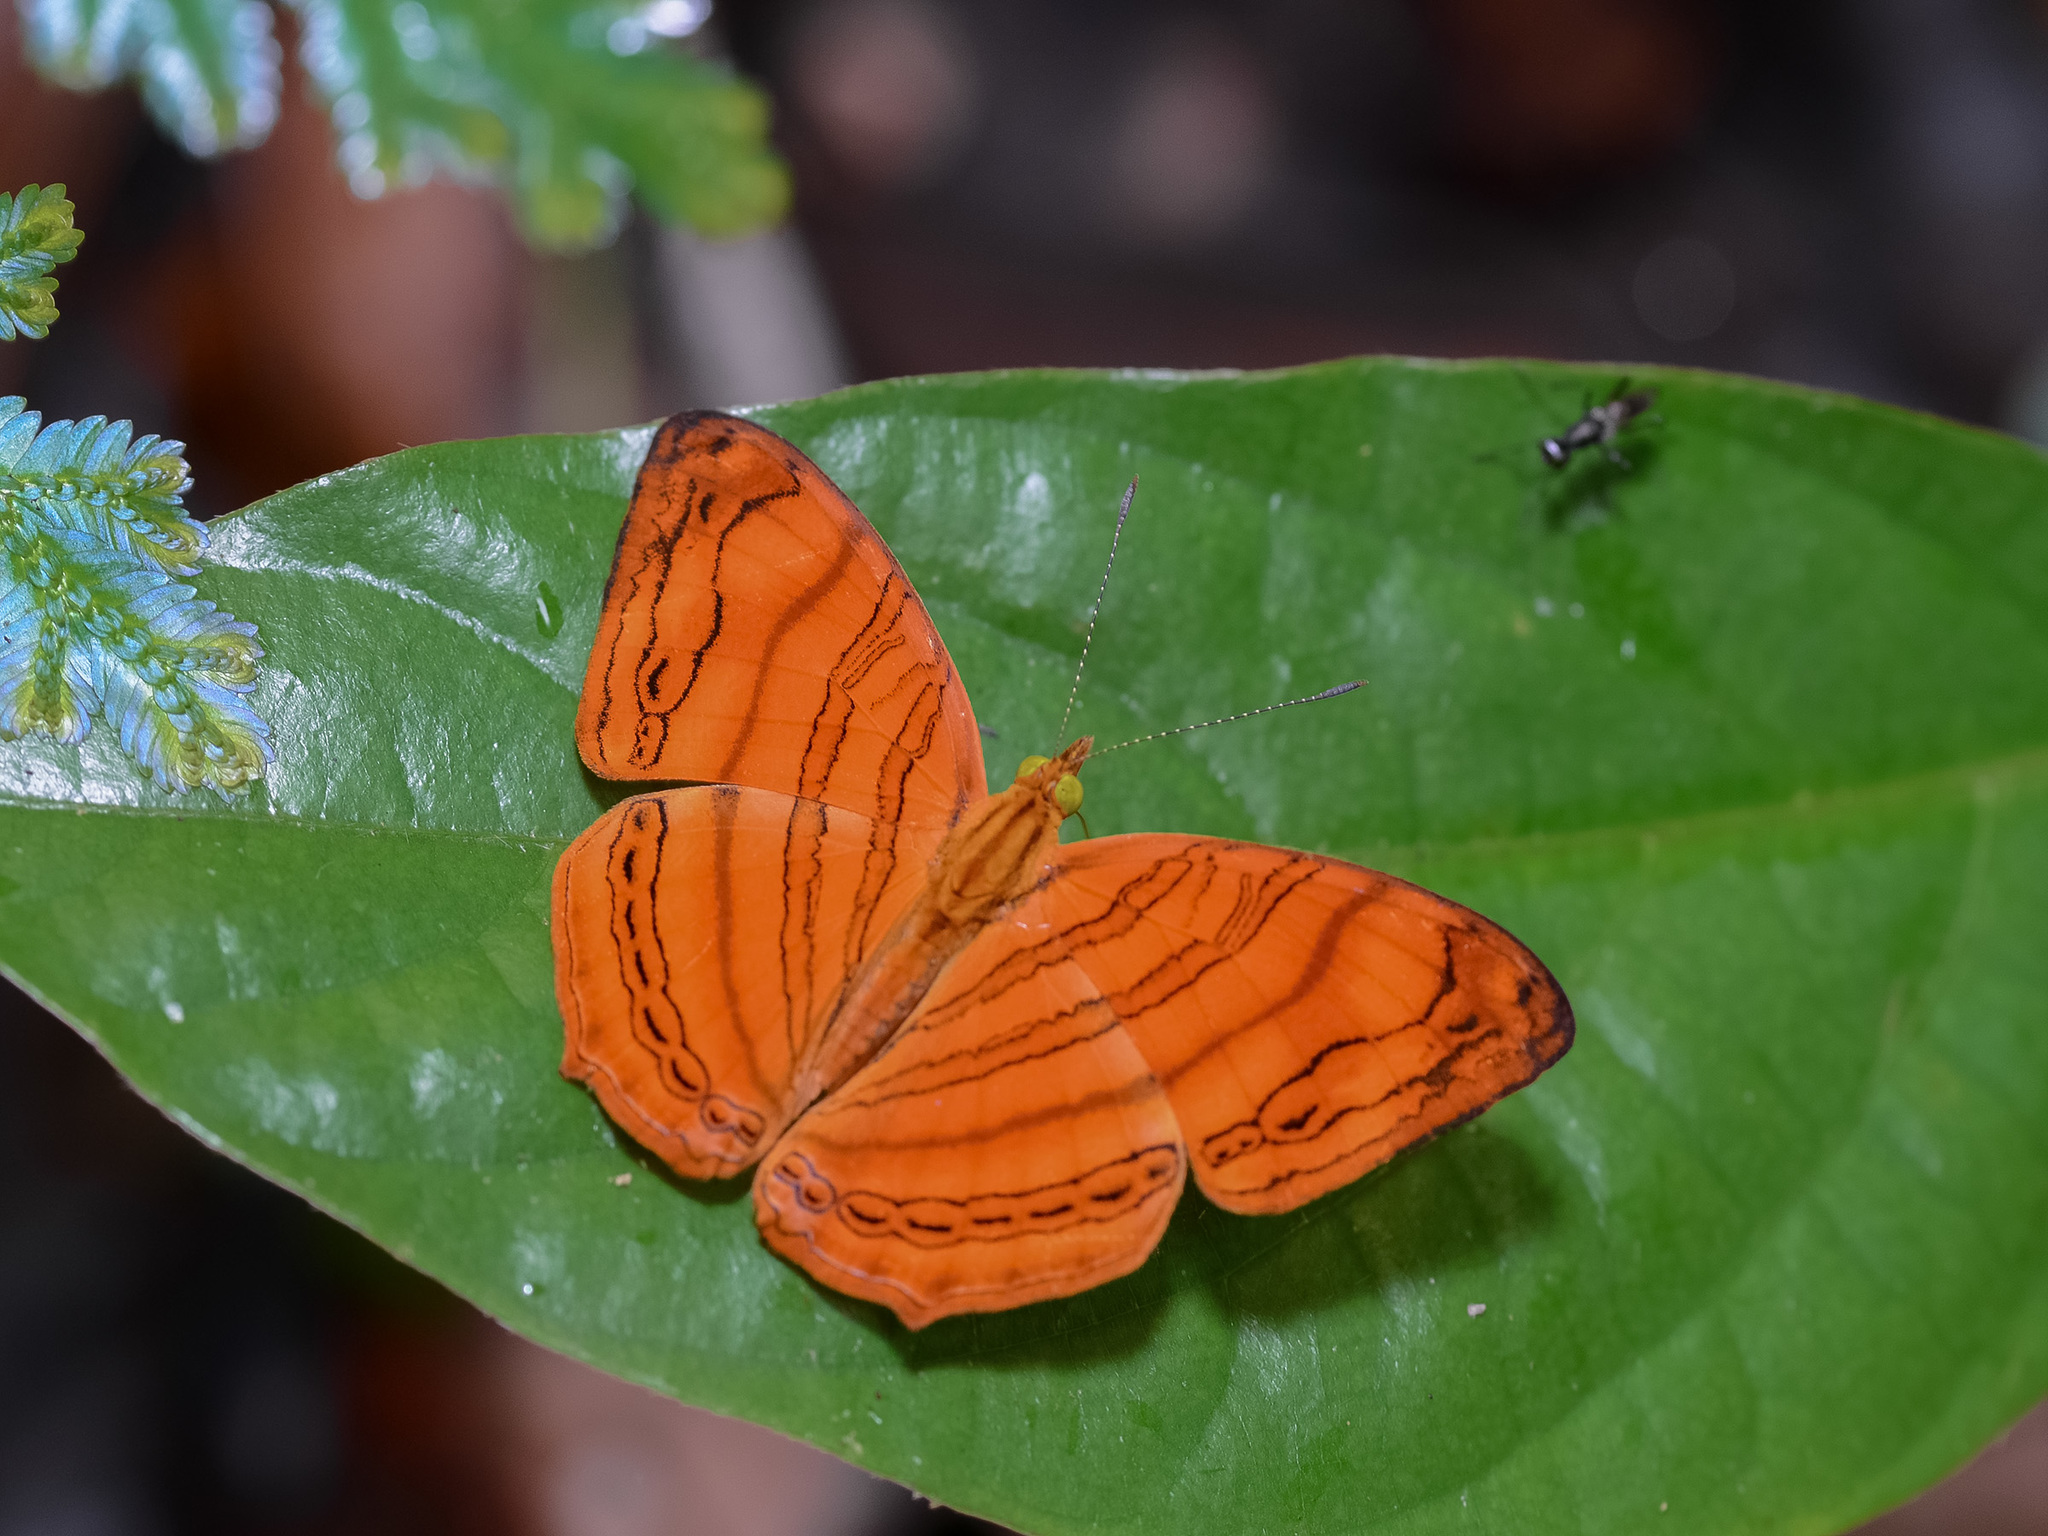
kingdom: Animalia
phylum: Arthropoda
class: Insecta
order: Lepidoptera
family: Nymphalidae
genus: Chersonesia
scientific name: Chersonesia rahria
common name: Wavy maplet
